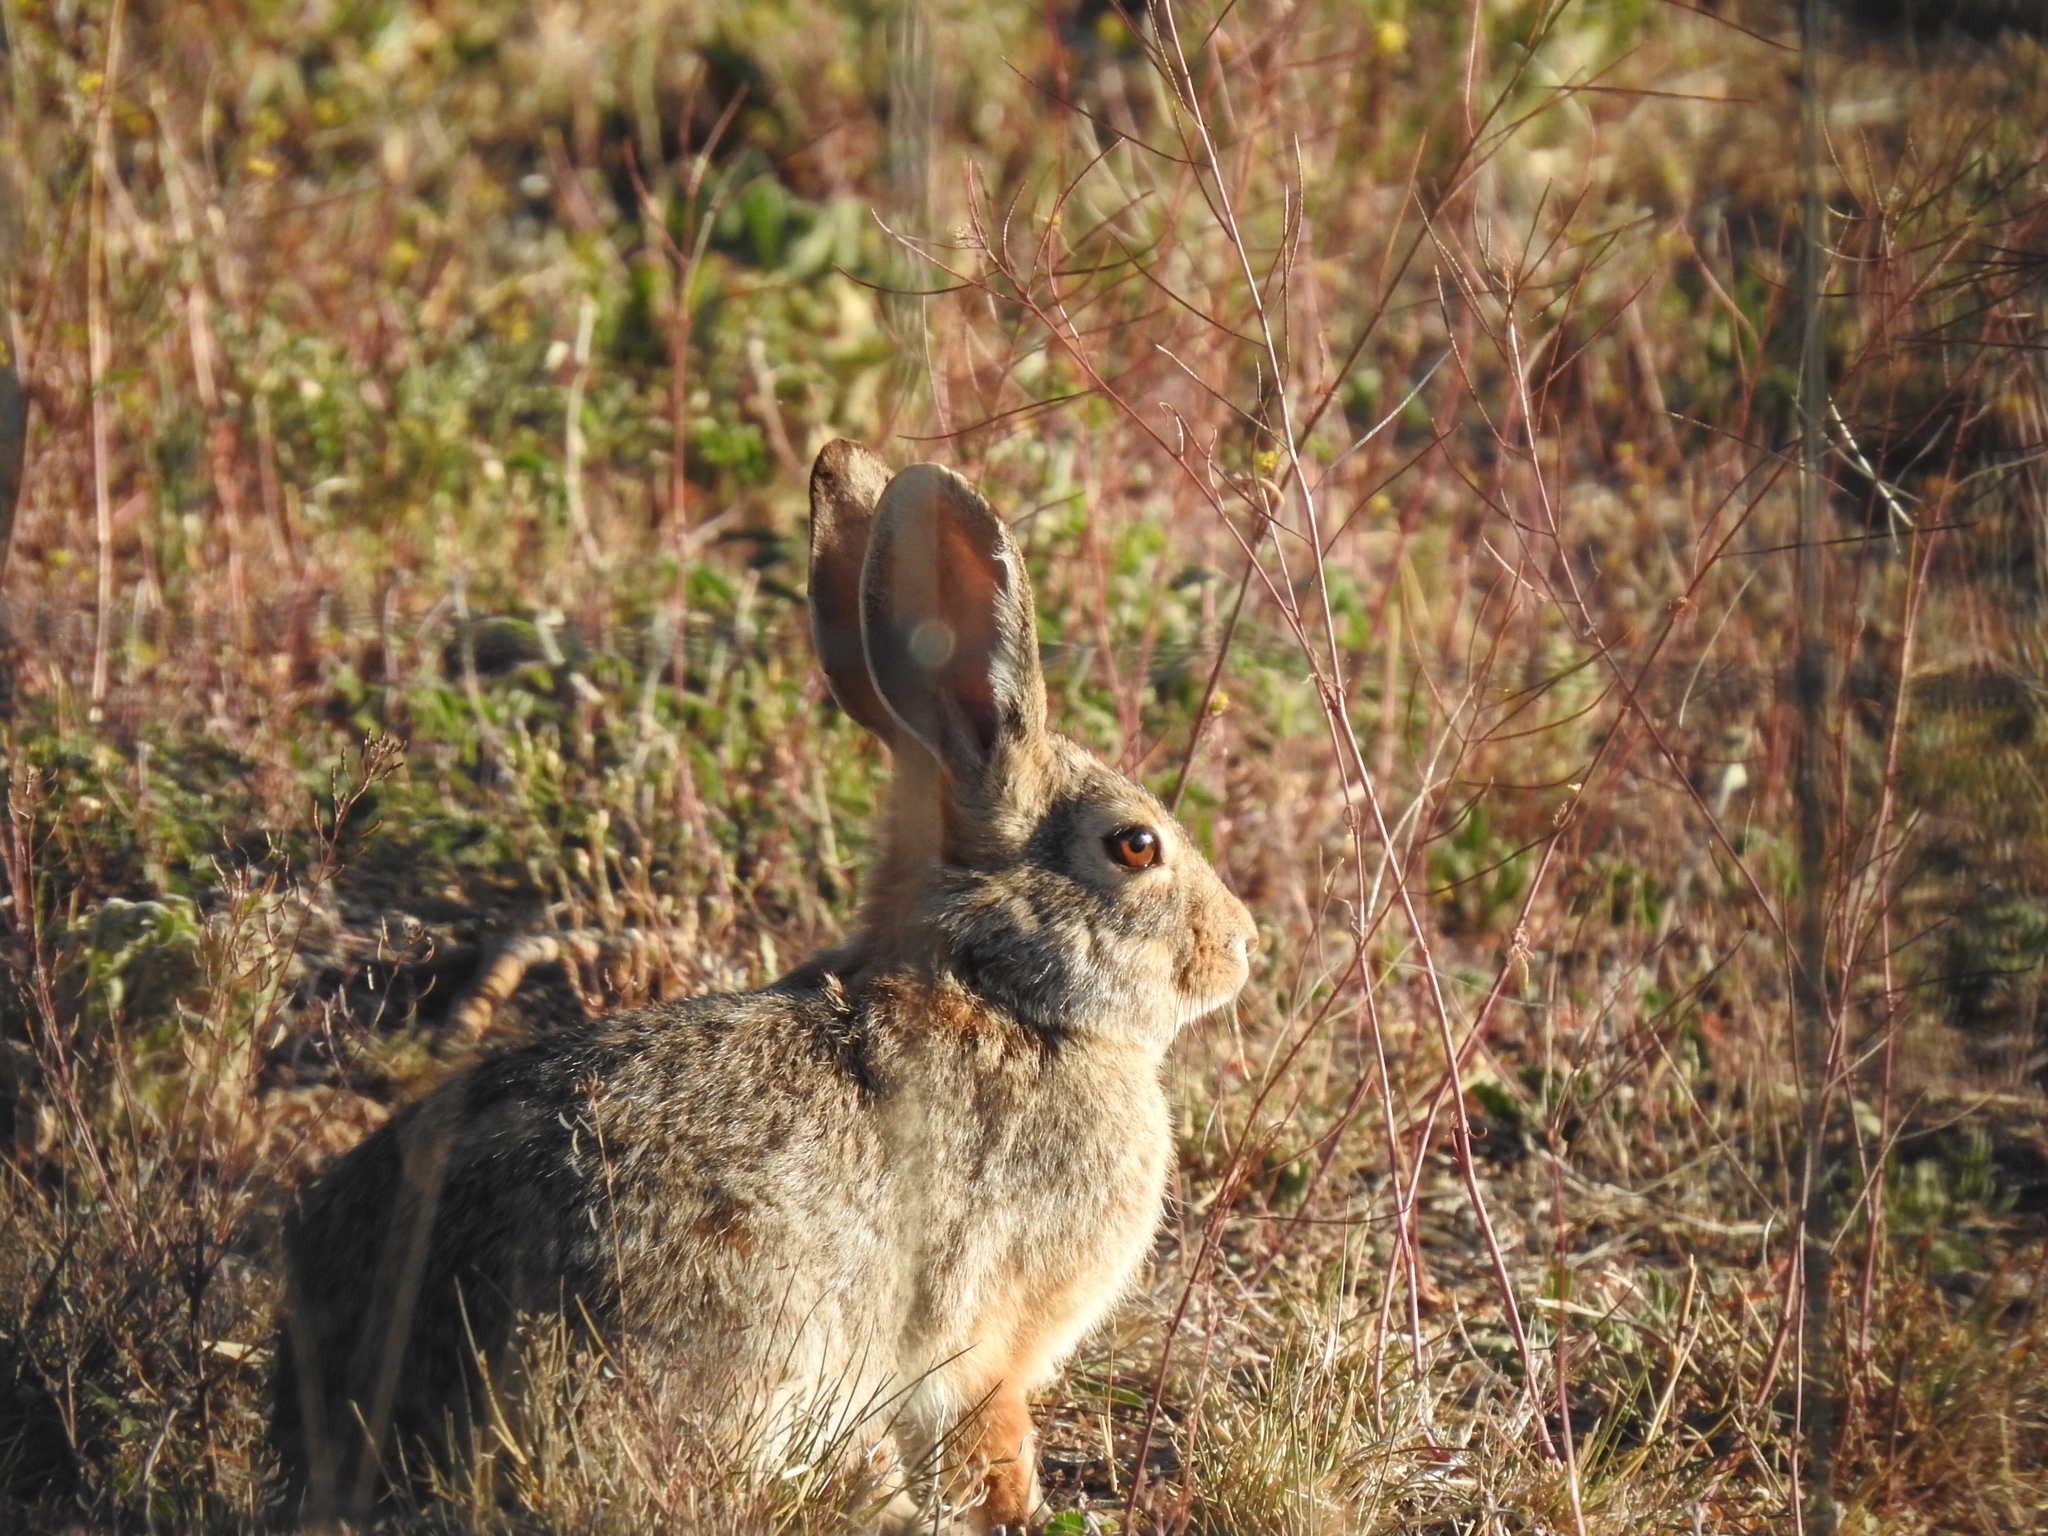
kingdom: Animalia
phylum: Chordata
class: Mammalia
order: Lagomorpha
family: Leporidae
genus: Sylvilagus
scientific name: Sylvilagus audubonii
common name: Desert cottontail
